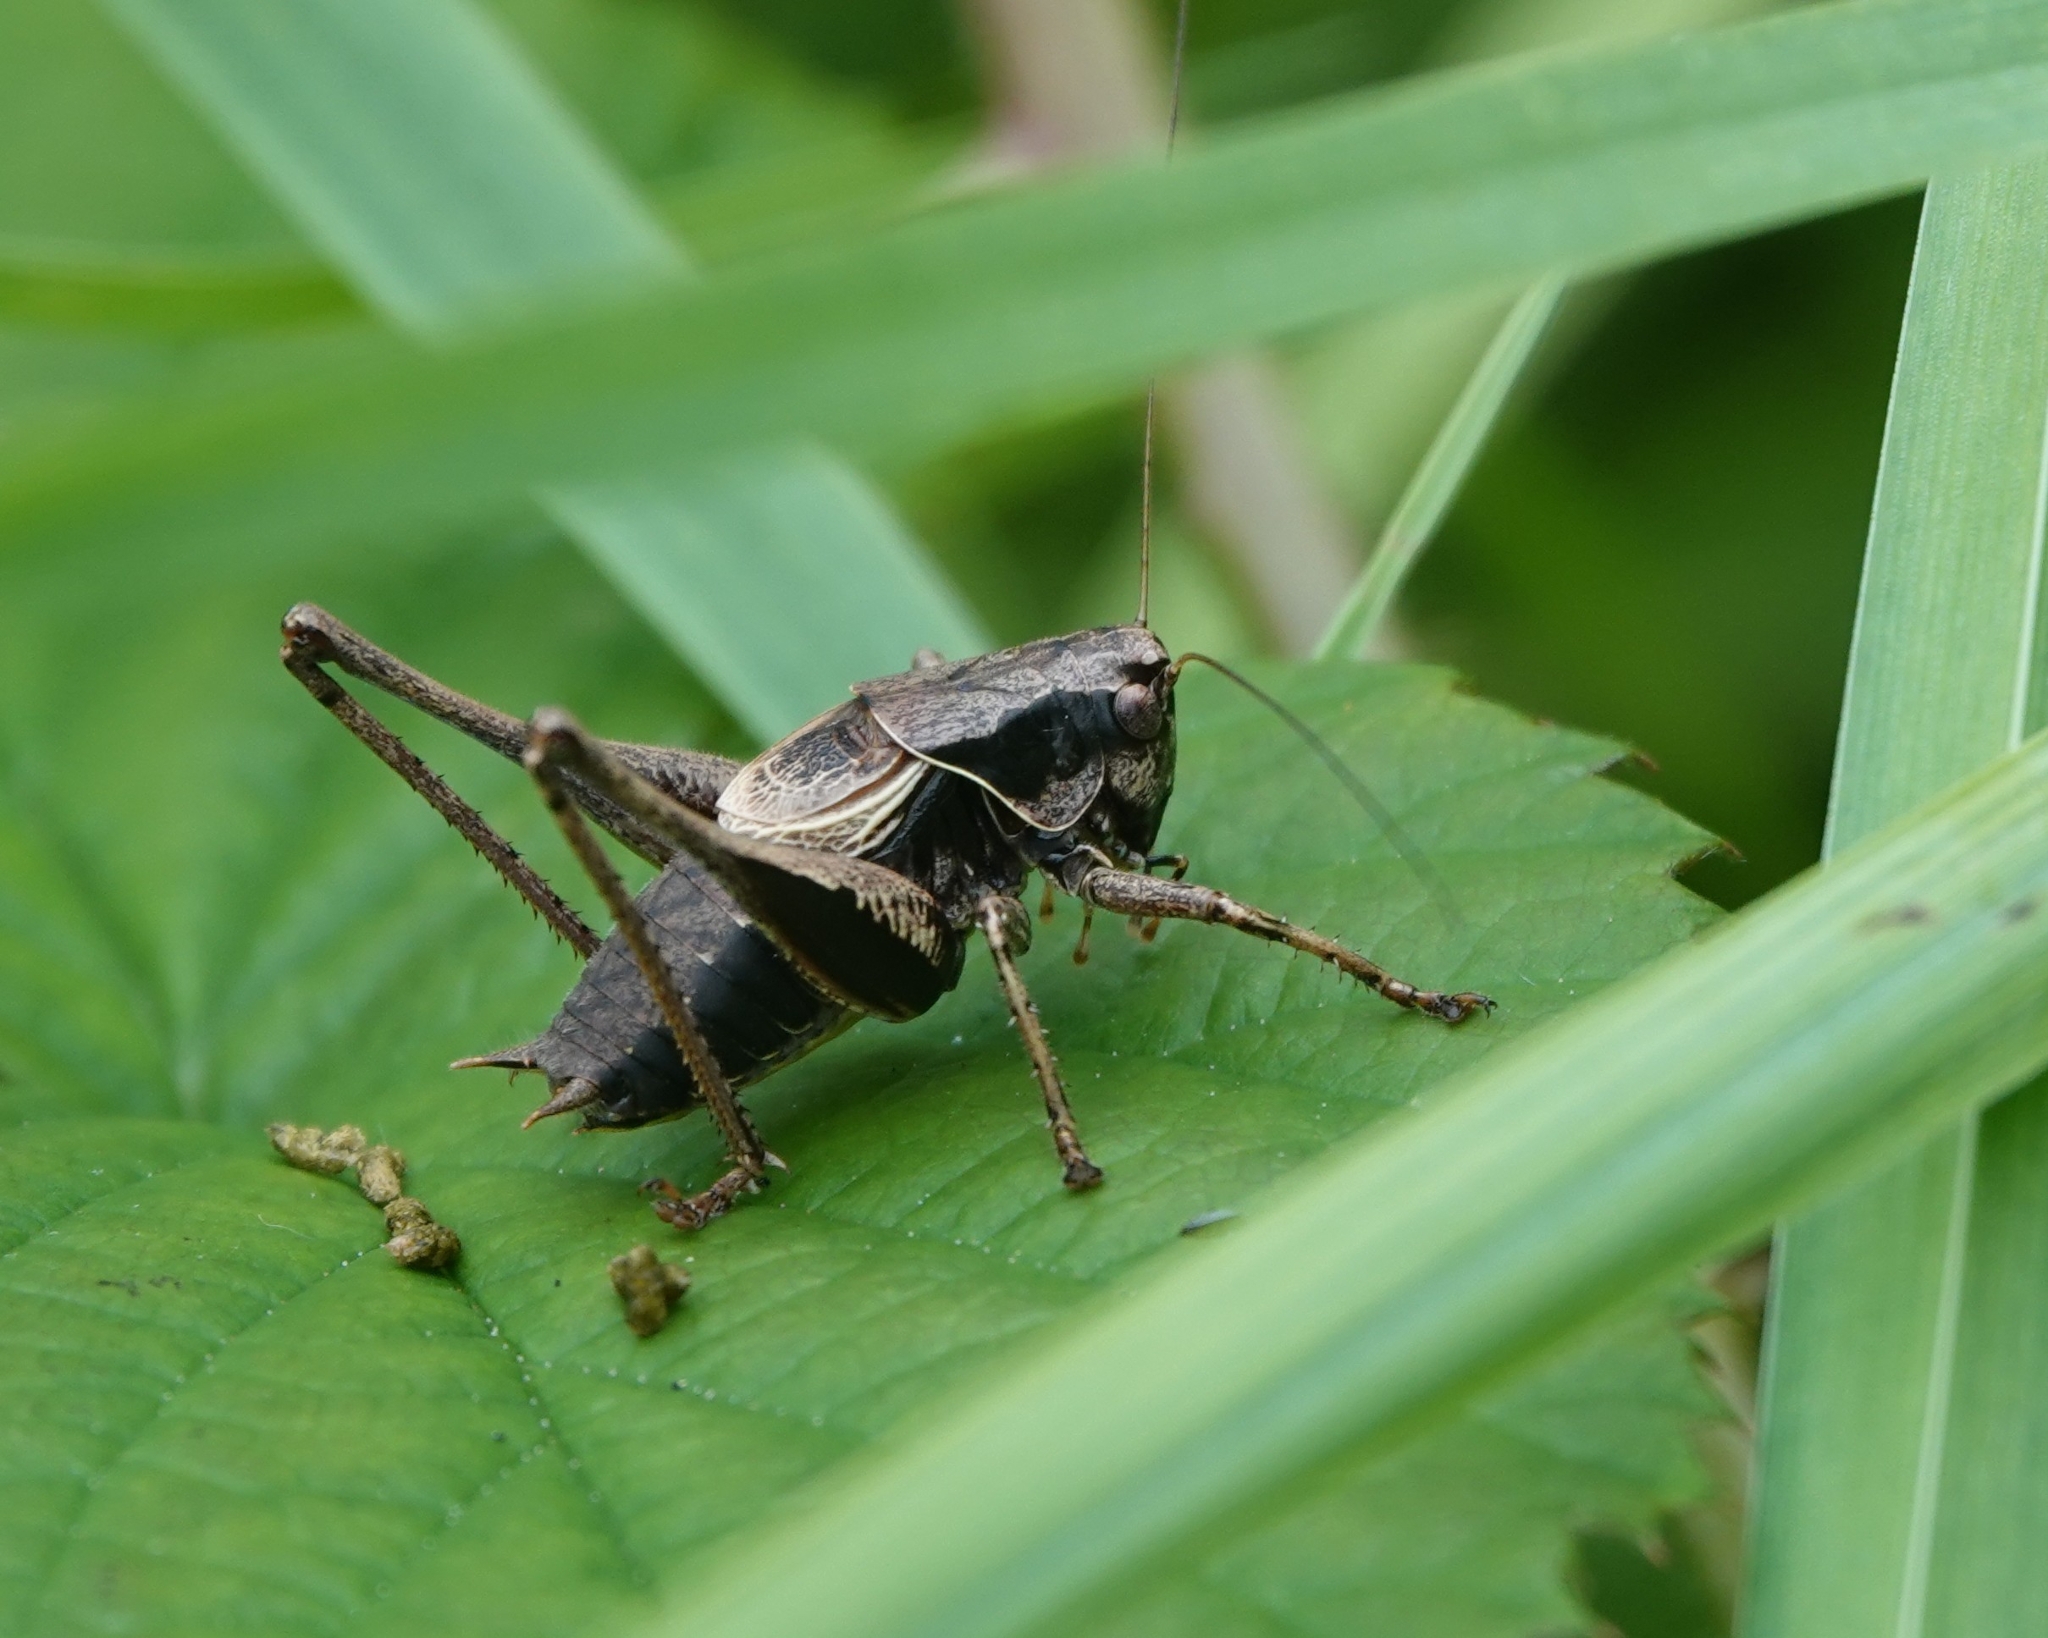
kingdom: Animalia
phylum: Arthropoda
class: Insecta
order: Orthoptera
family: Tettigoniidae
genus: Pholidoptera
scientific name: Pholidoptera griseoaptera
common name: Dark bush-cricket
